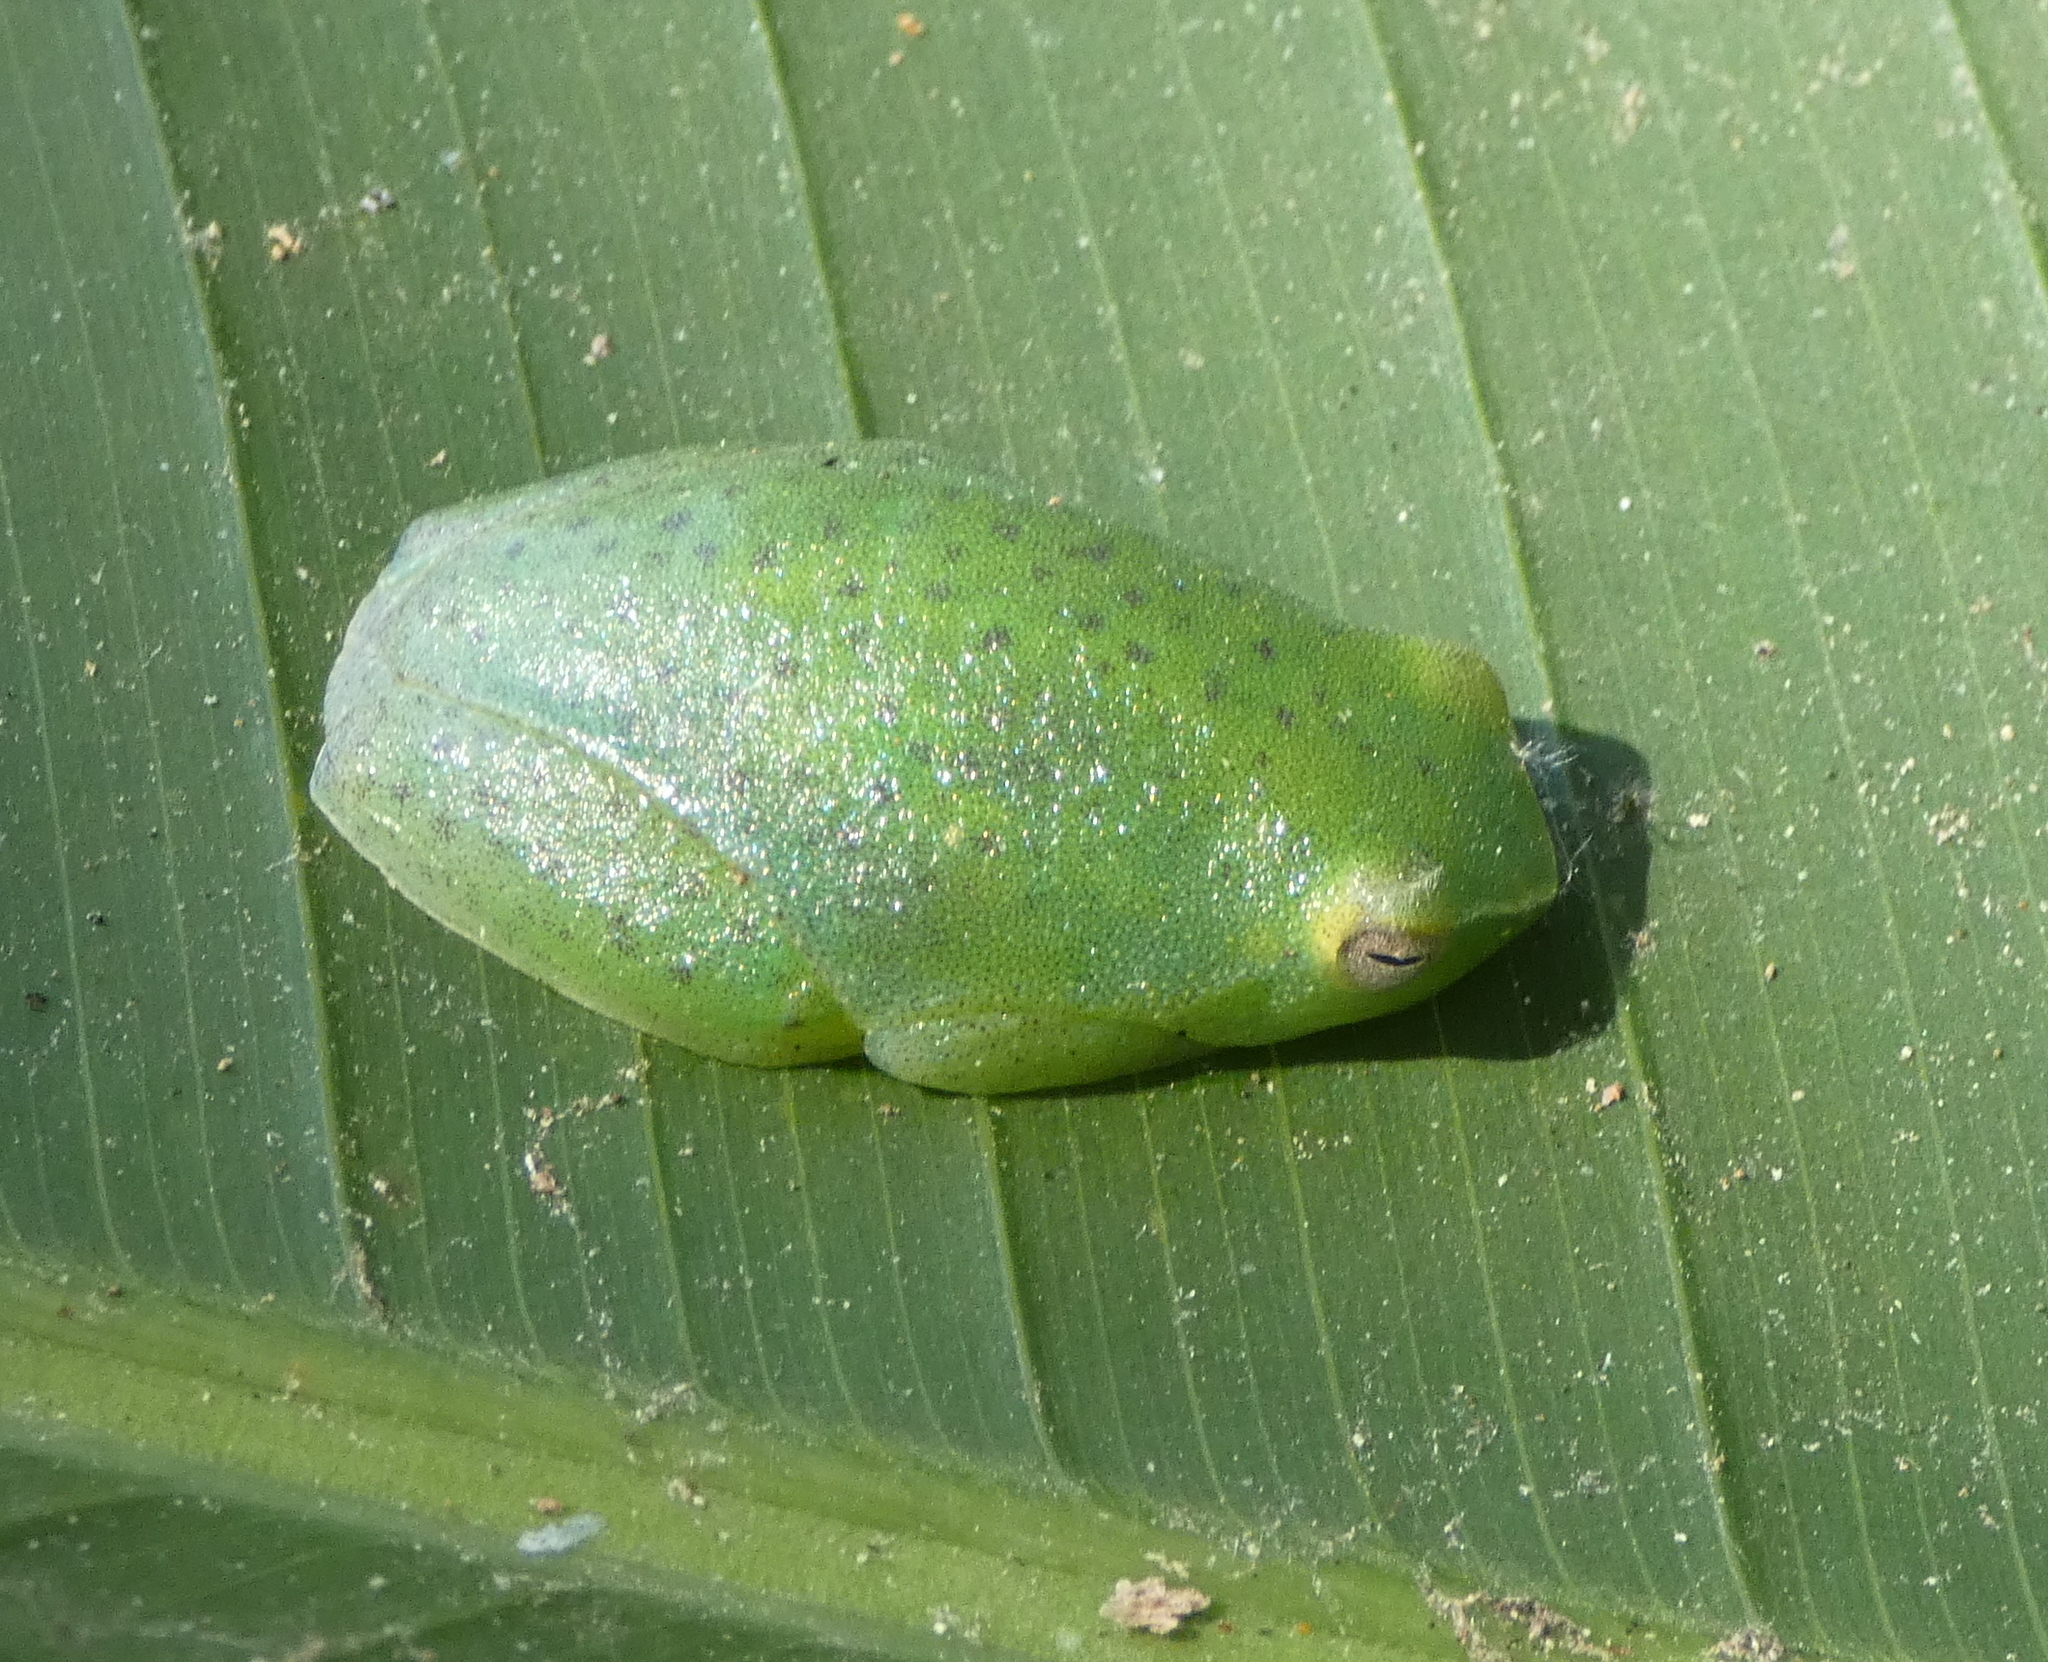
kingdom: Animalia
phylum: Chordata
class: Amphibia
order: Anura
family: Hylidae
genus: Sphaenorhynchus
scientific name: Sphaenorhynchus prasinus
